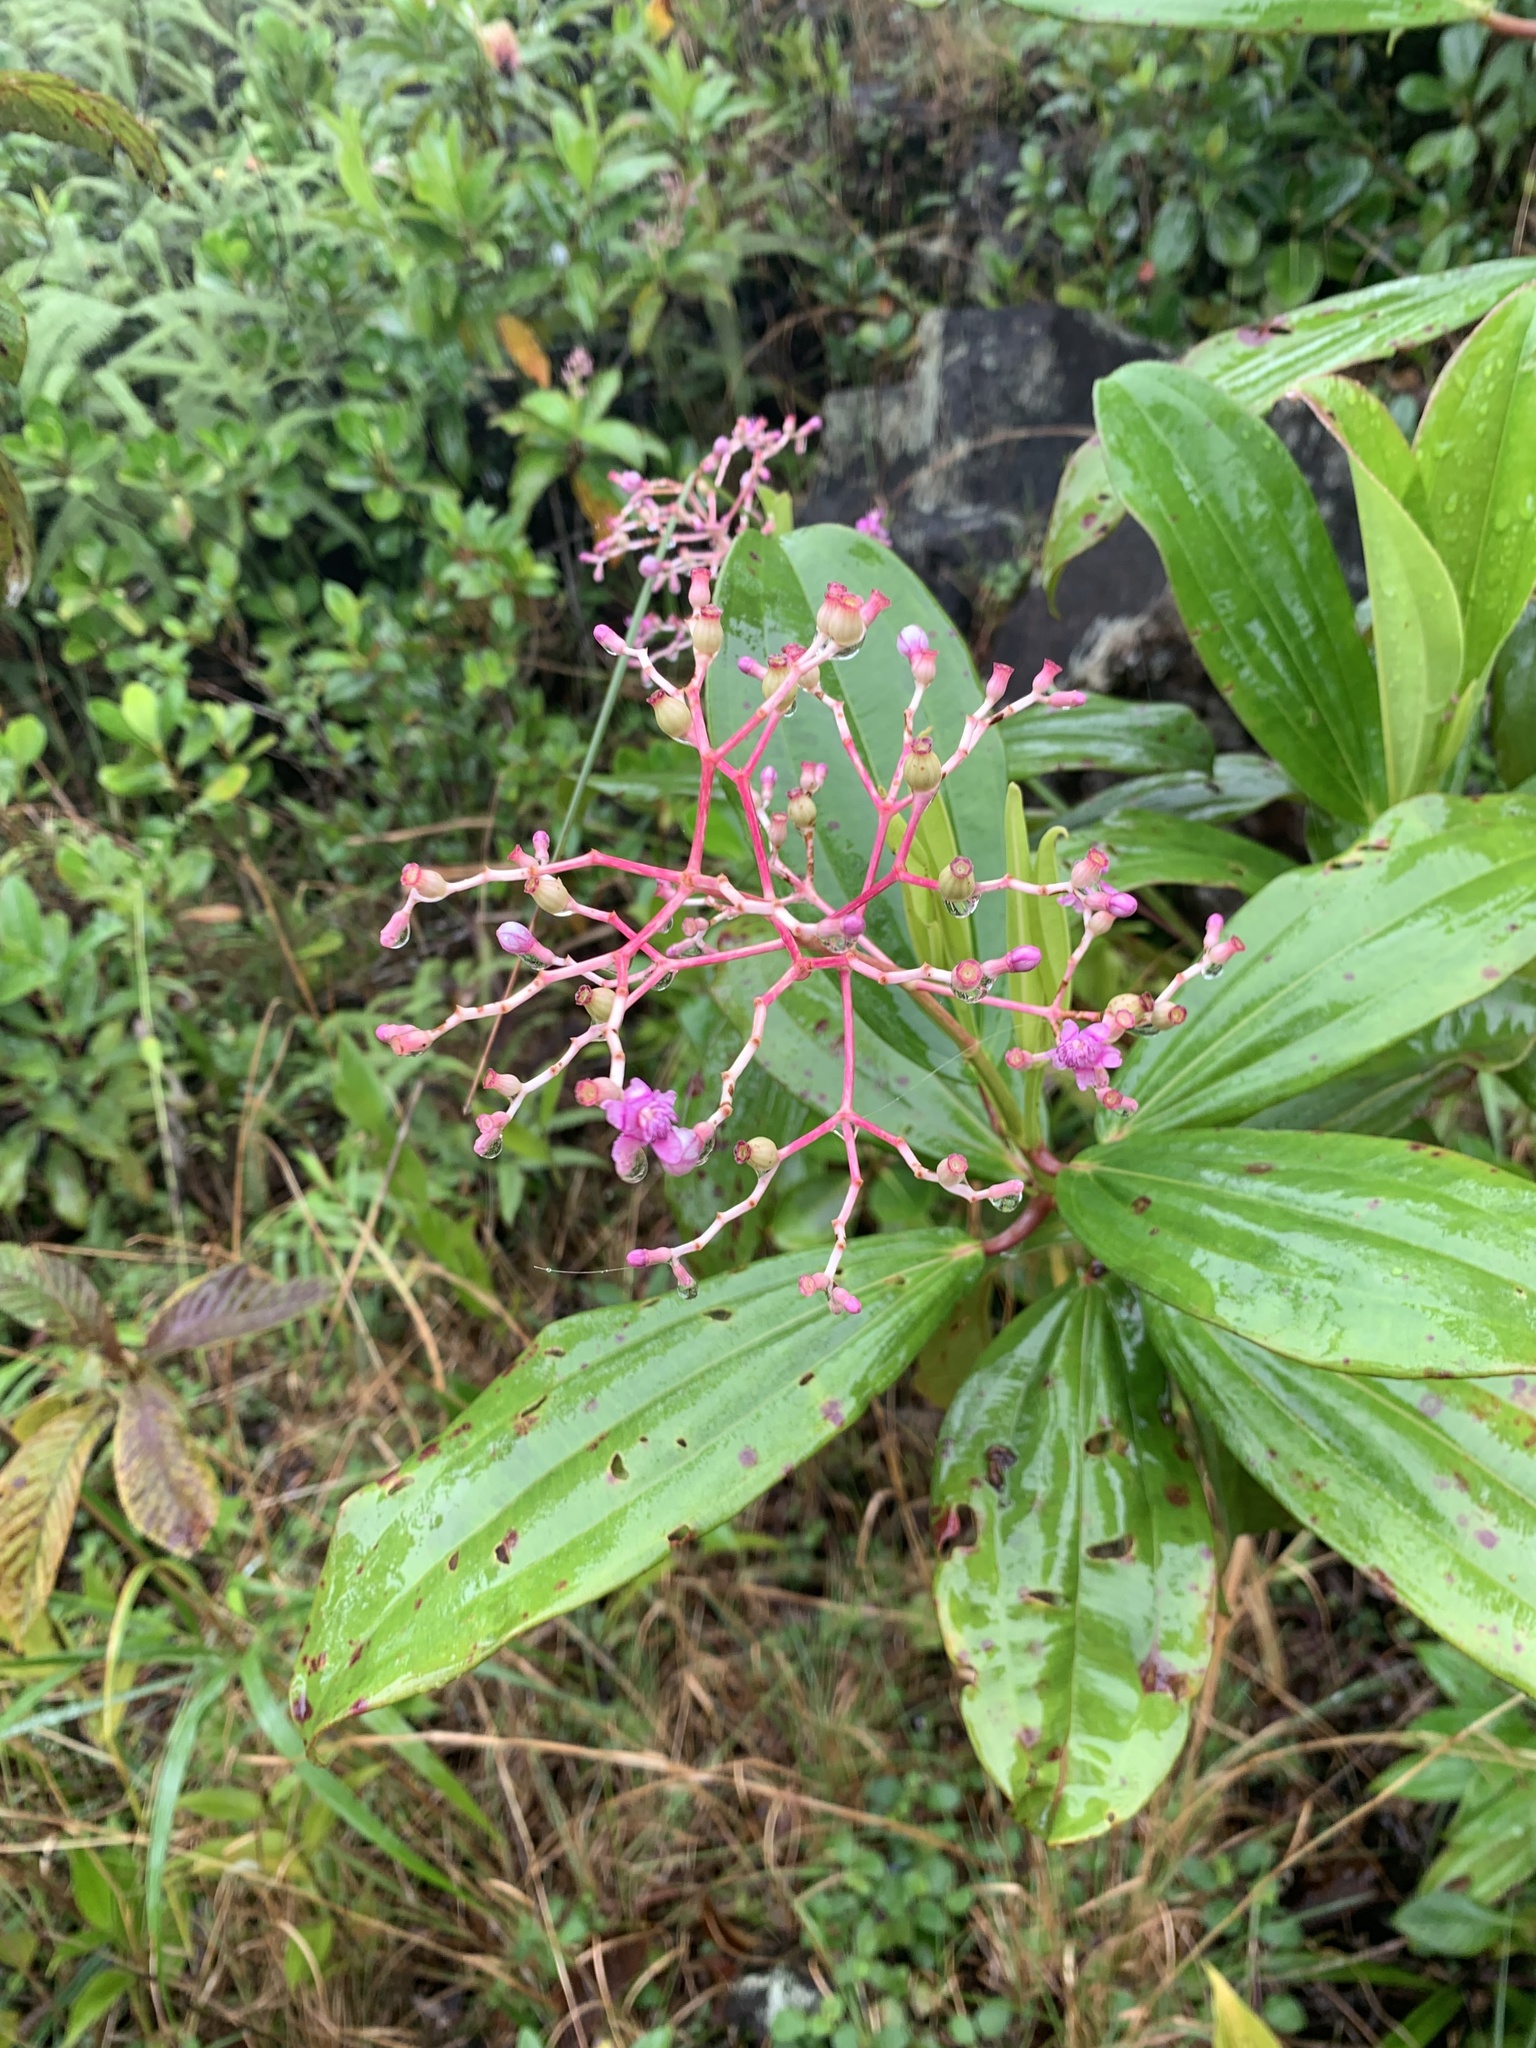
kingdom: Plantae
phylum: Tracheophyta
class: Magnoliopsida
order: Myrtales
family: Melastomataceae
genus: Miconia
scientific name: Miconia rhodopetala
